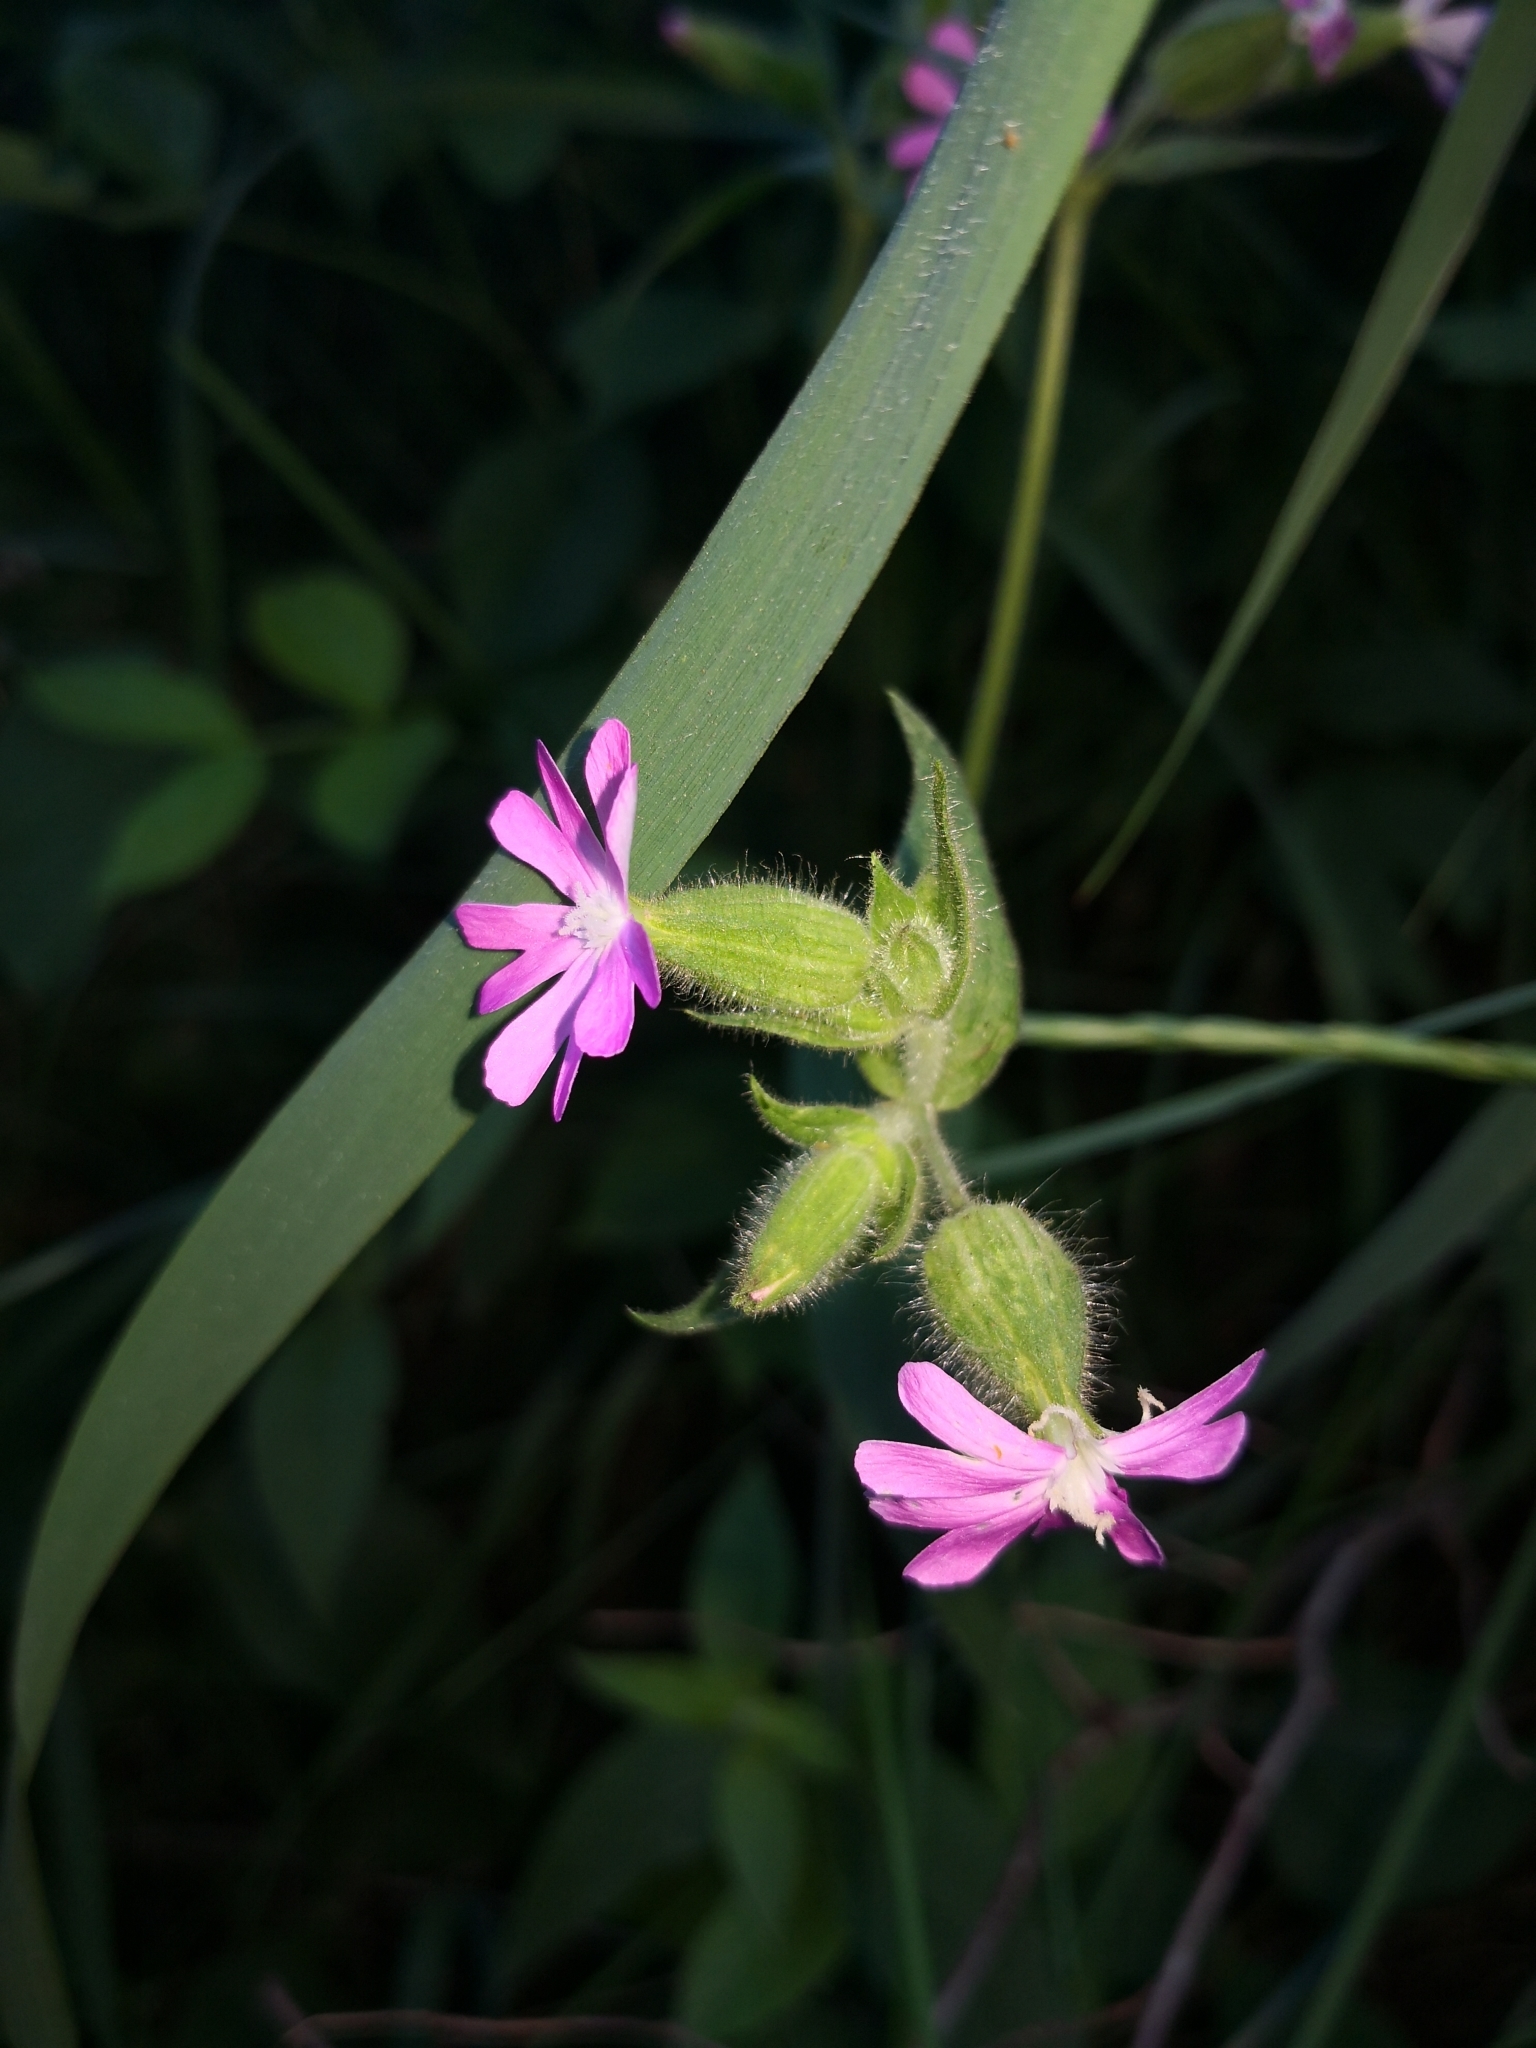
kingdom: Plantae
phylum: Tracheophyta
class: Magnoliopsida
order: Caryophyllales
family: Caryophyllaceae
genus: Silene
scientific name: Silene dioica
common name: Red campion
